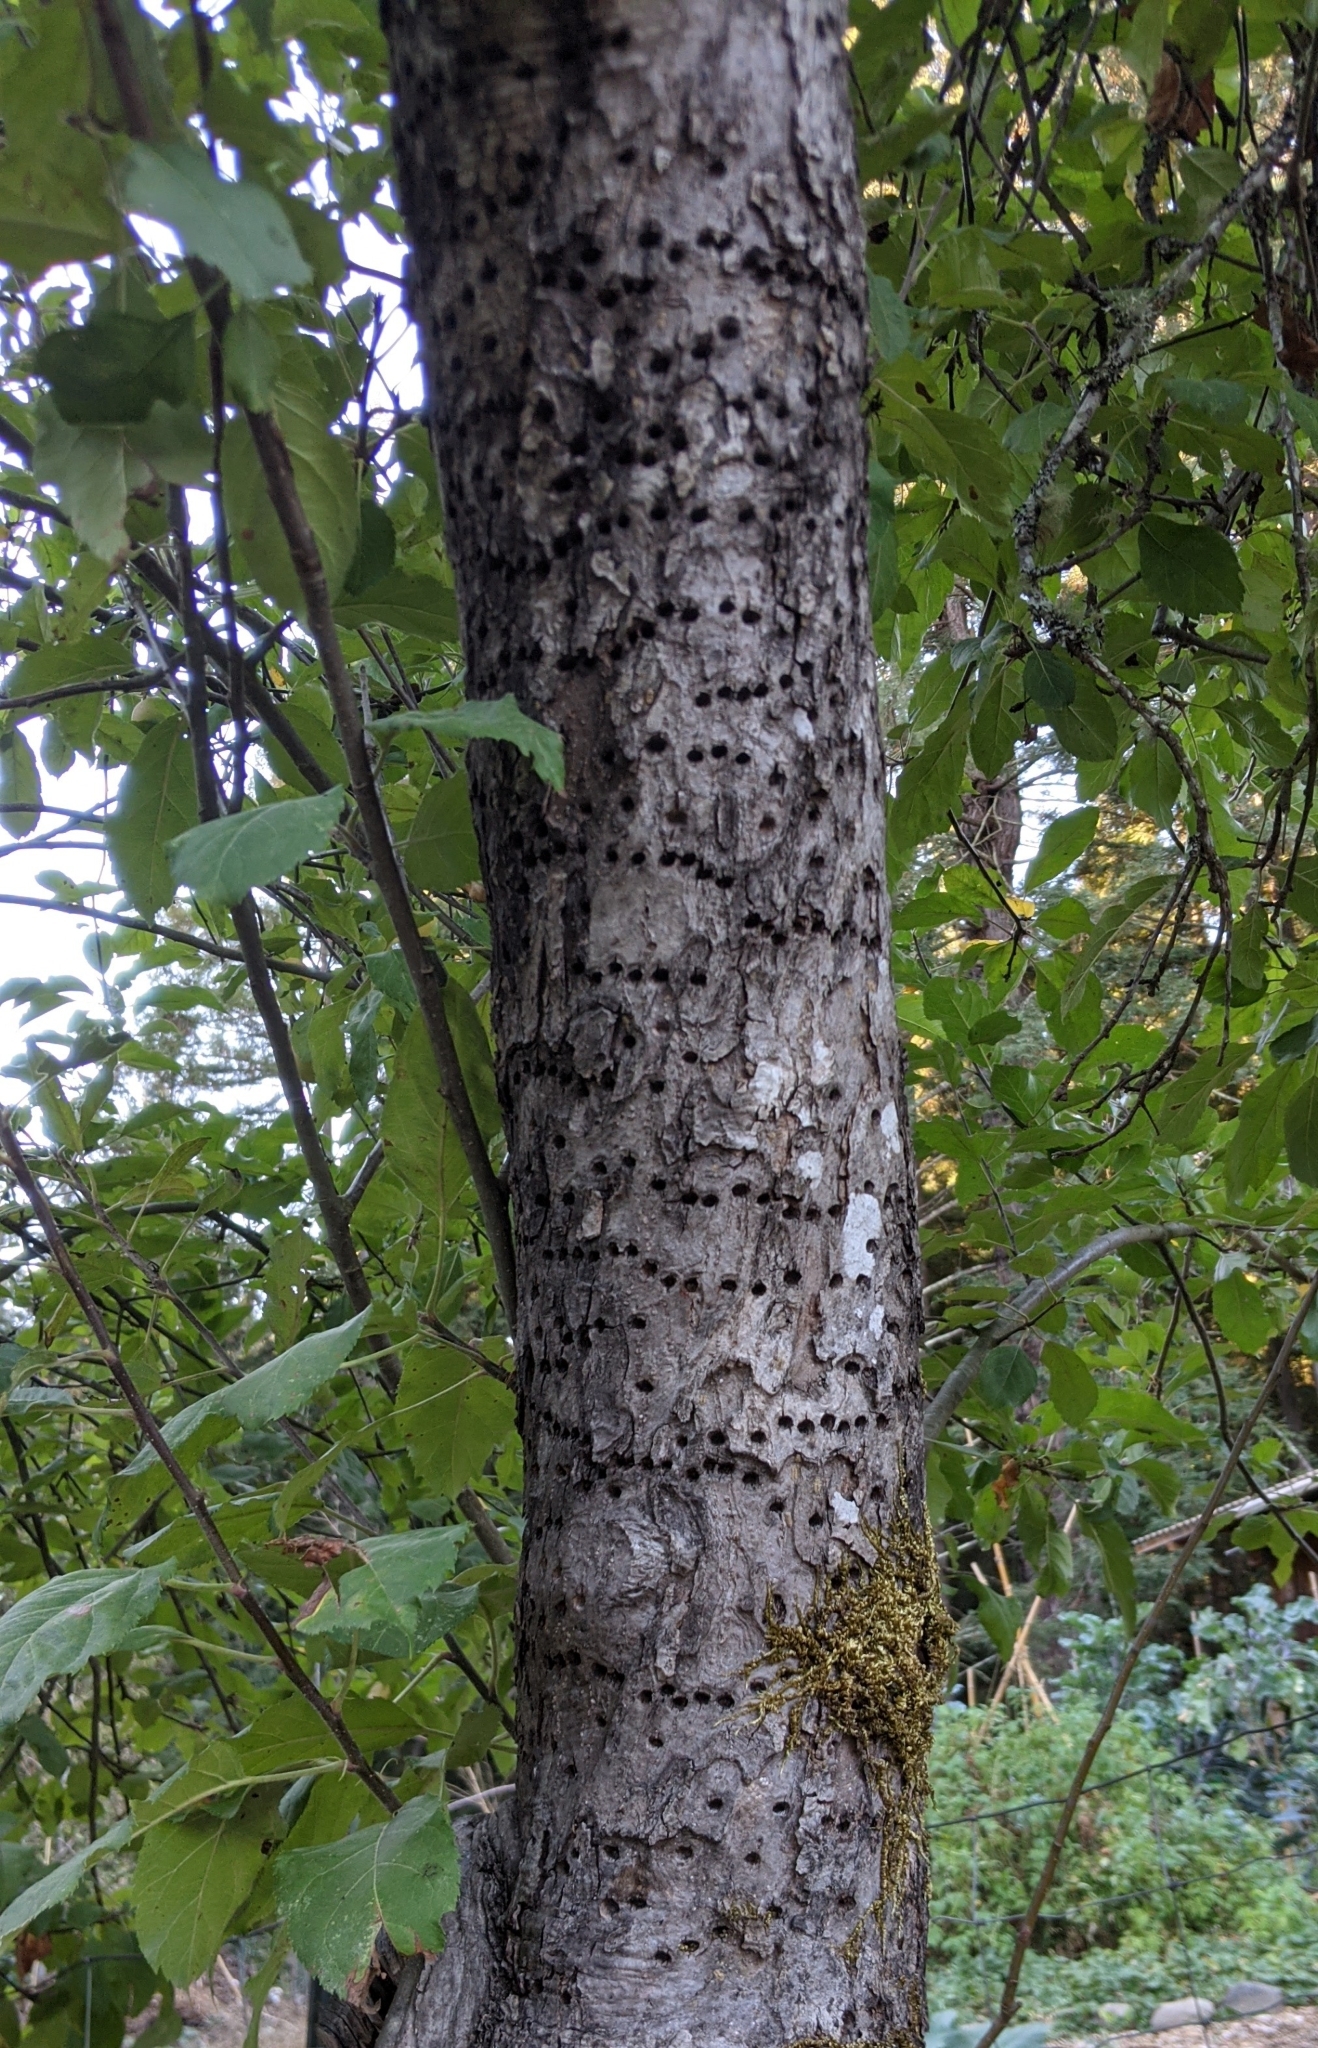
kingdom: Animalia
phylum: Chordata
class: Aves
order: Piciformes
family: Picidae
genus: Sphyrapicus
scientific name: Sphyrapicus
